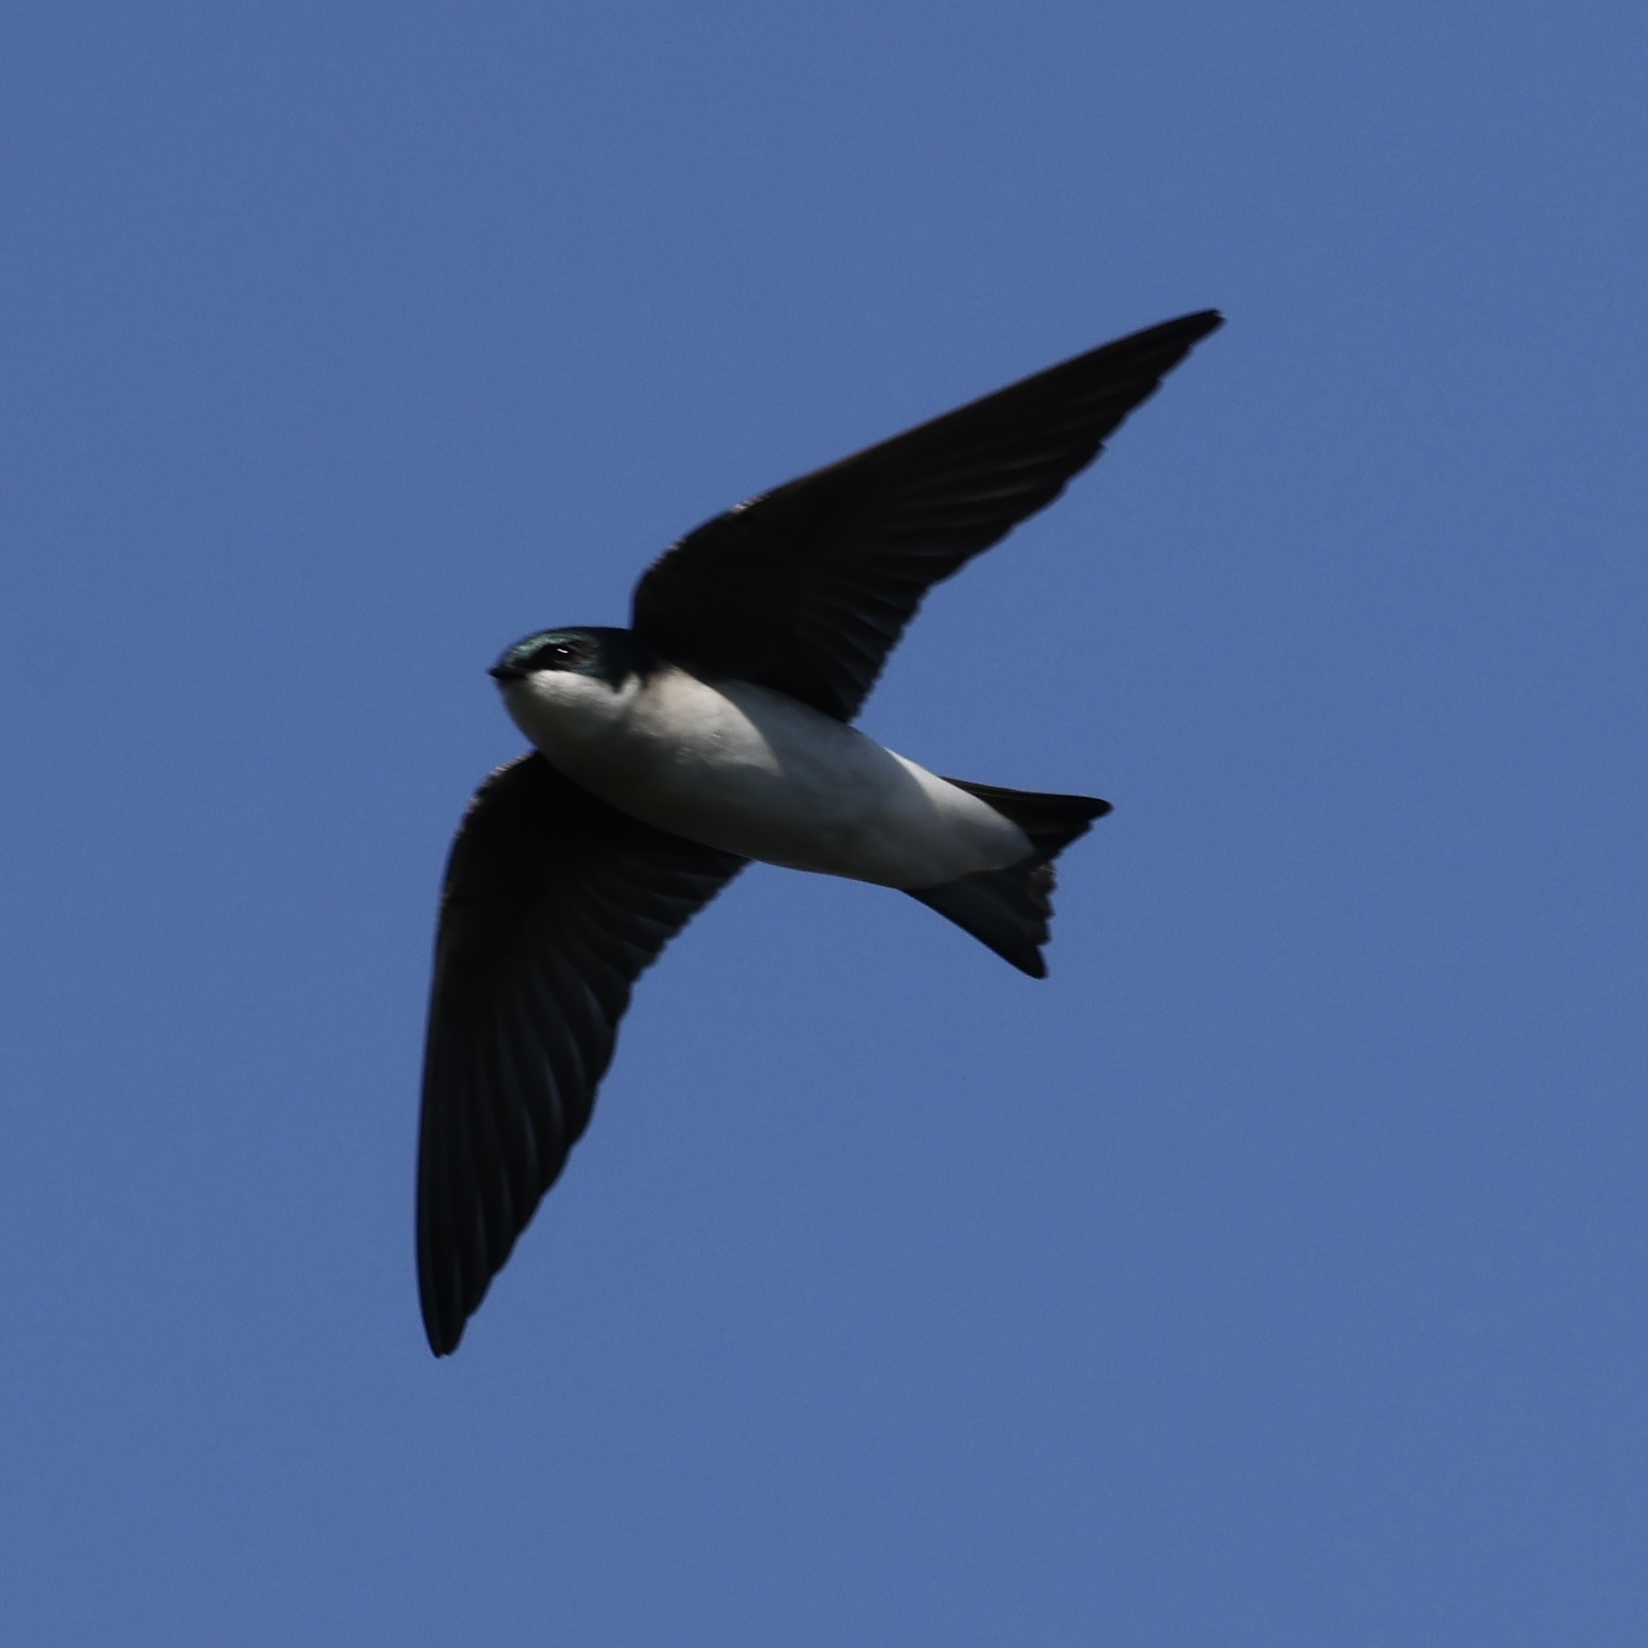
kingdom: Animalia
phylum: Chordata
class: Aves
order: Passeriformes
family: Hirundinidae
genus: Tachycineta
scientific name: Tachycineta bicolor
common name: Tree swallow
